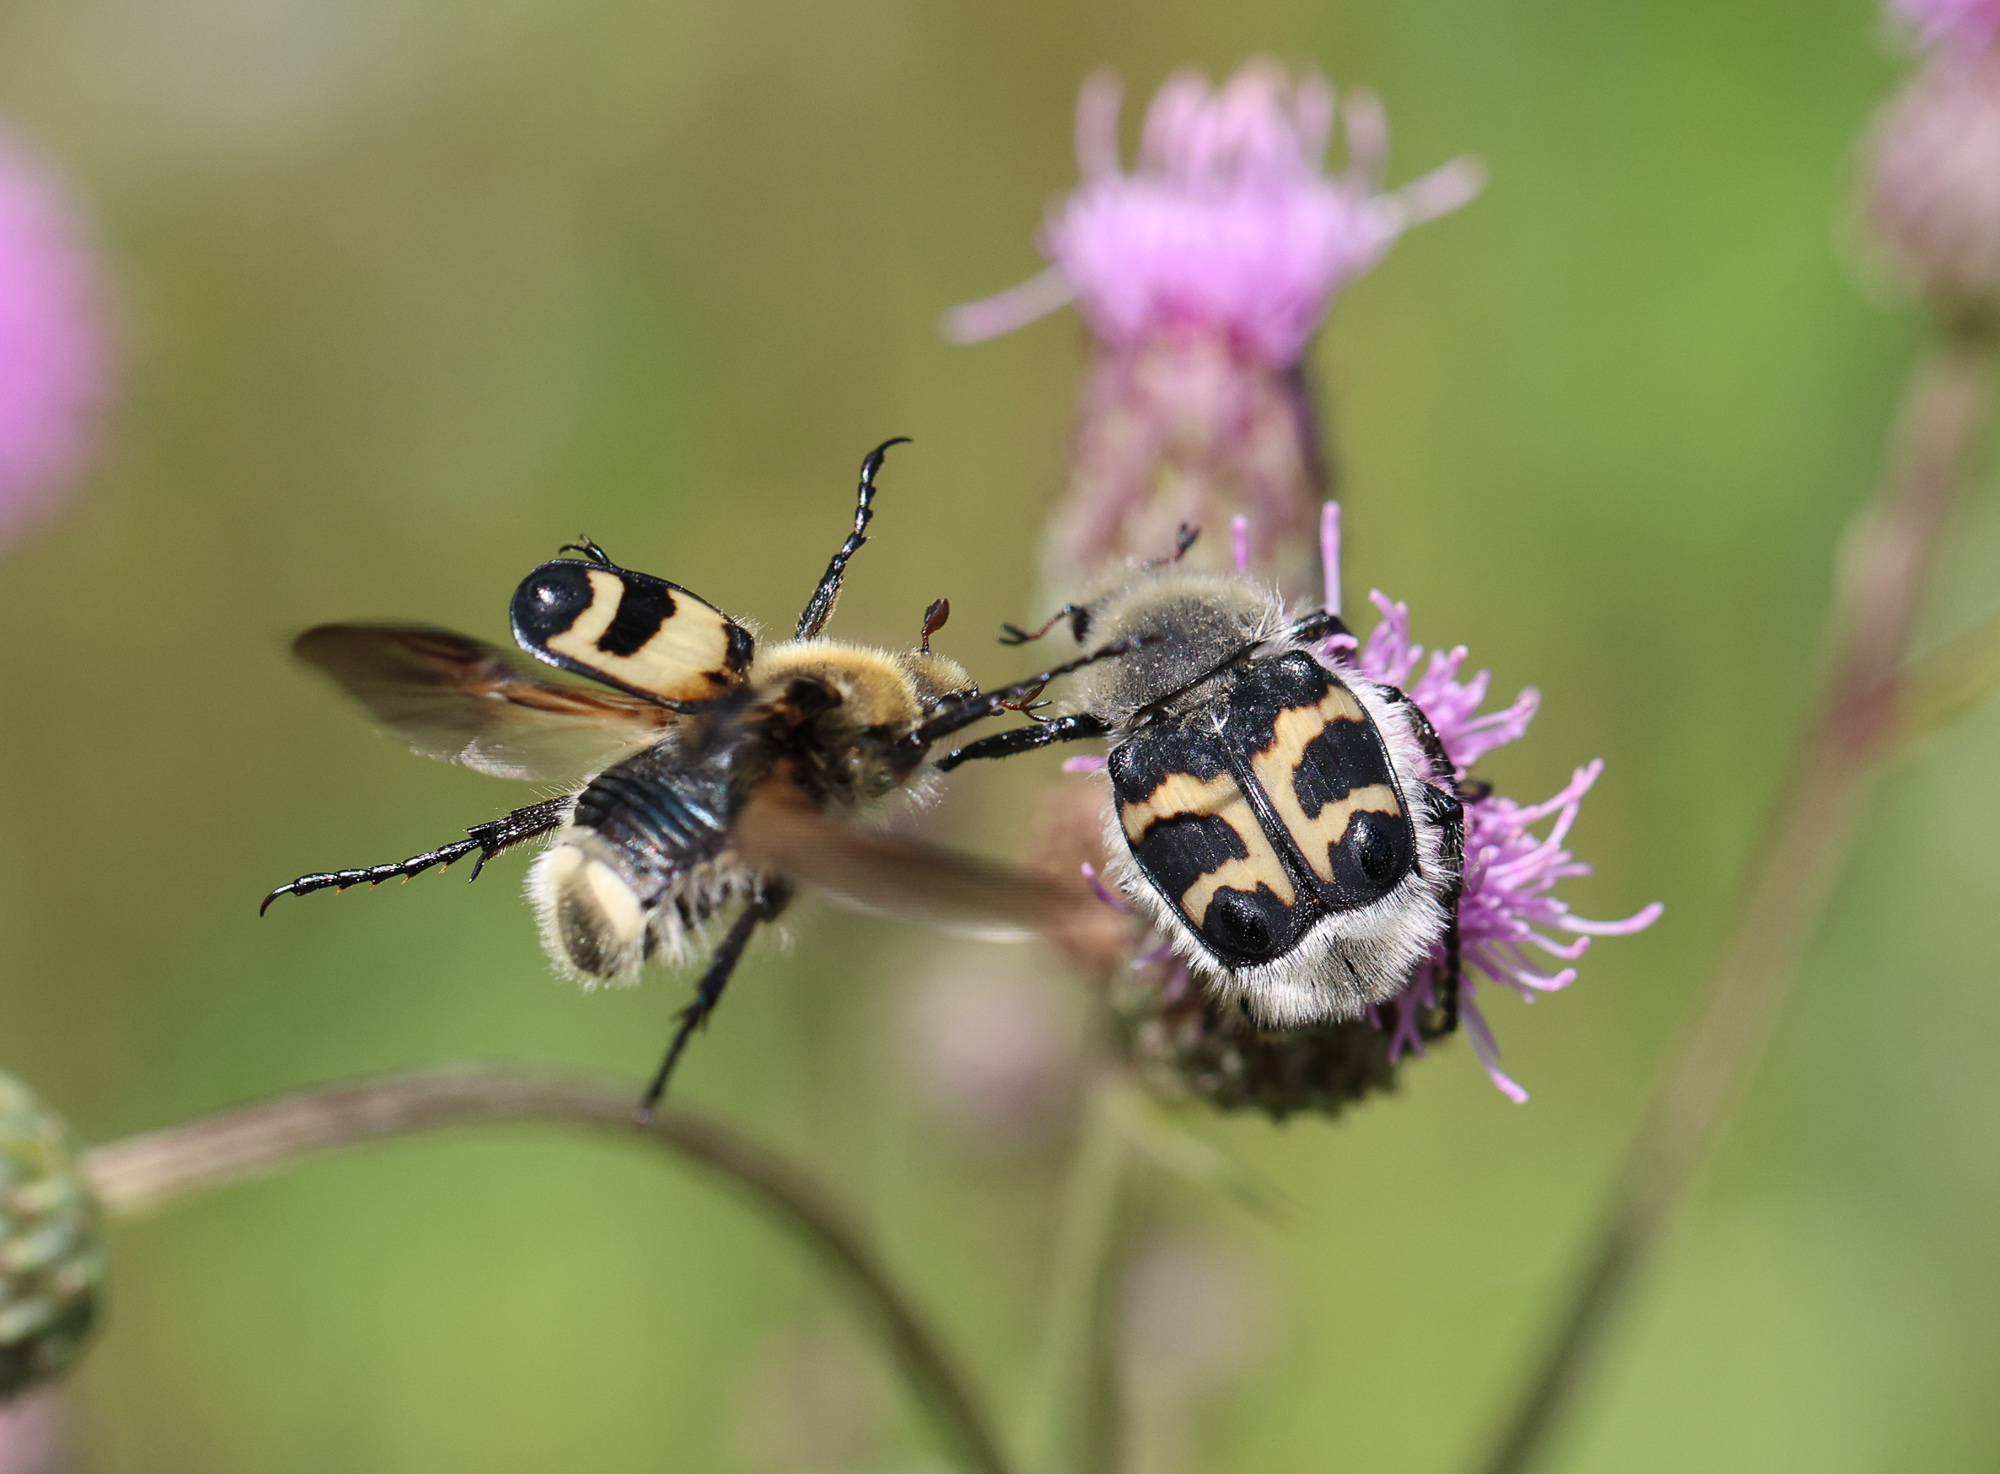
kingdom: Animalia
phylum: Arthropoda
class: Insecta
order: Coleoptera
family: Scarabaeidae
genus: Trichius
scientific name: Trichius fasciatus
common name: Bee beetle
